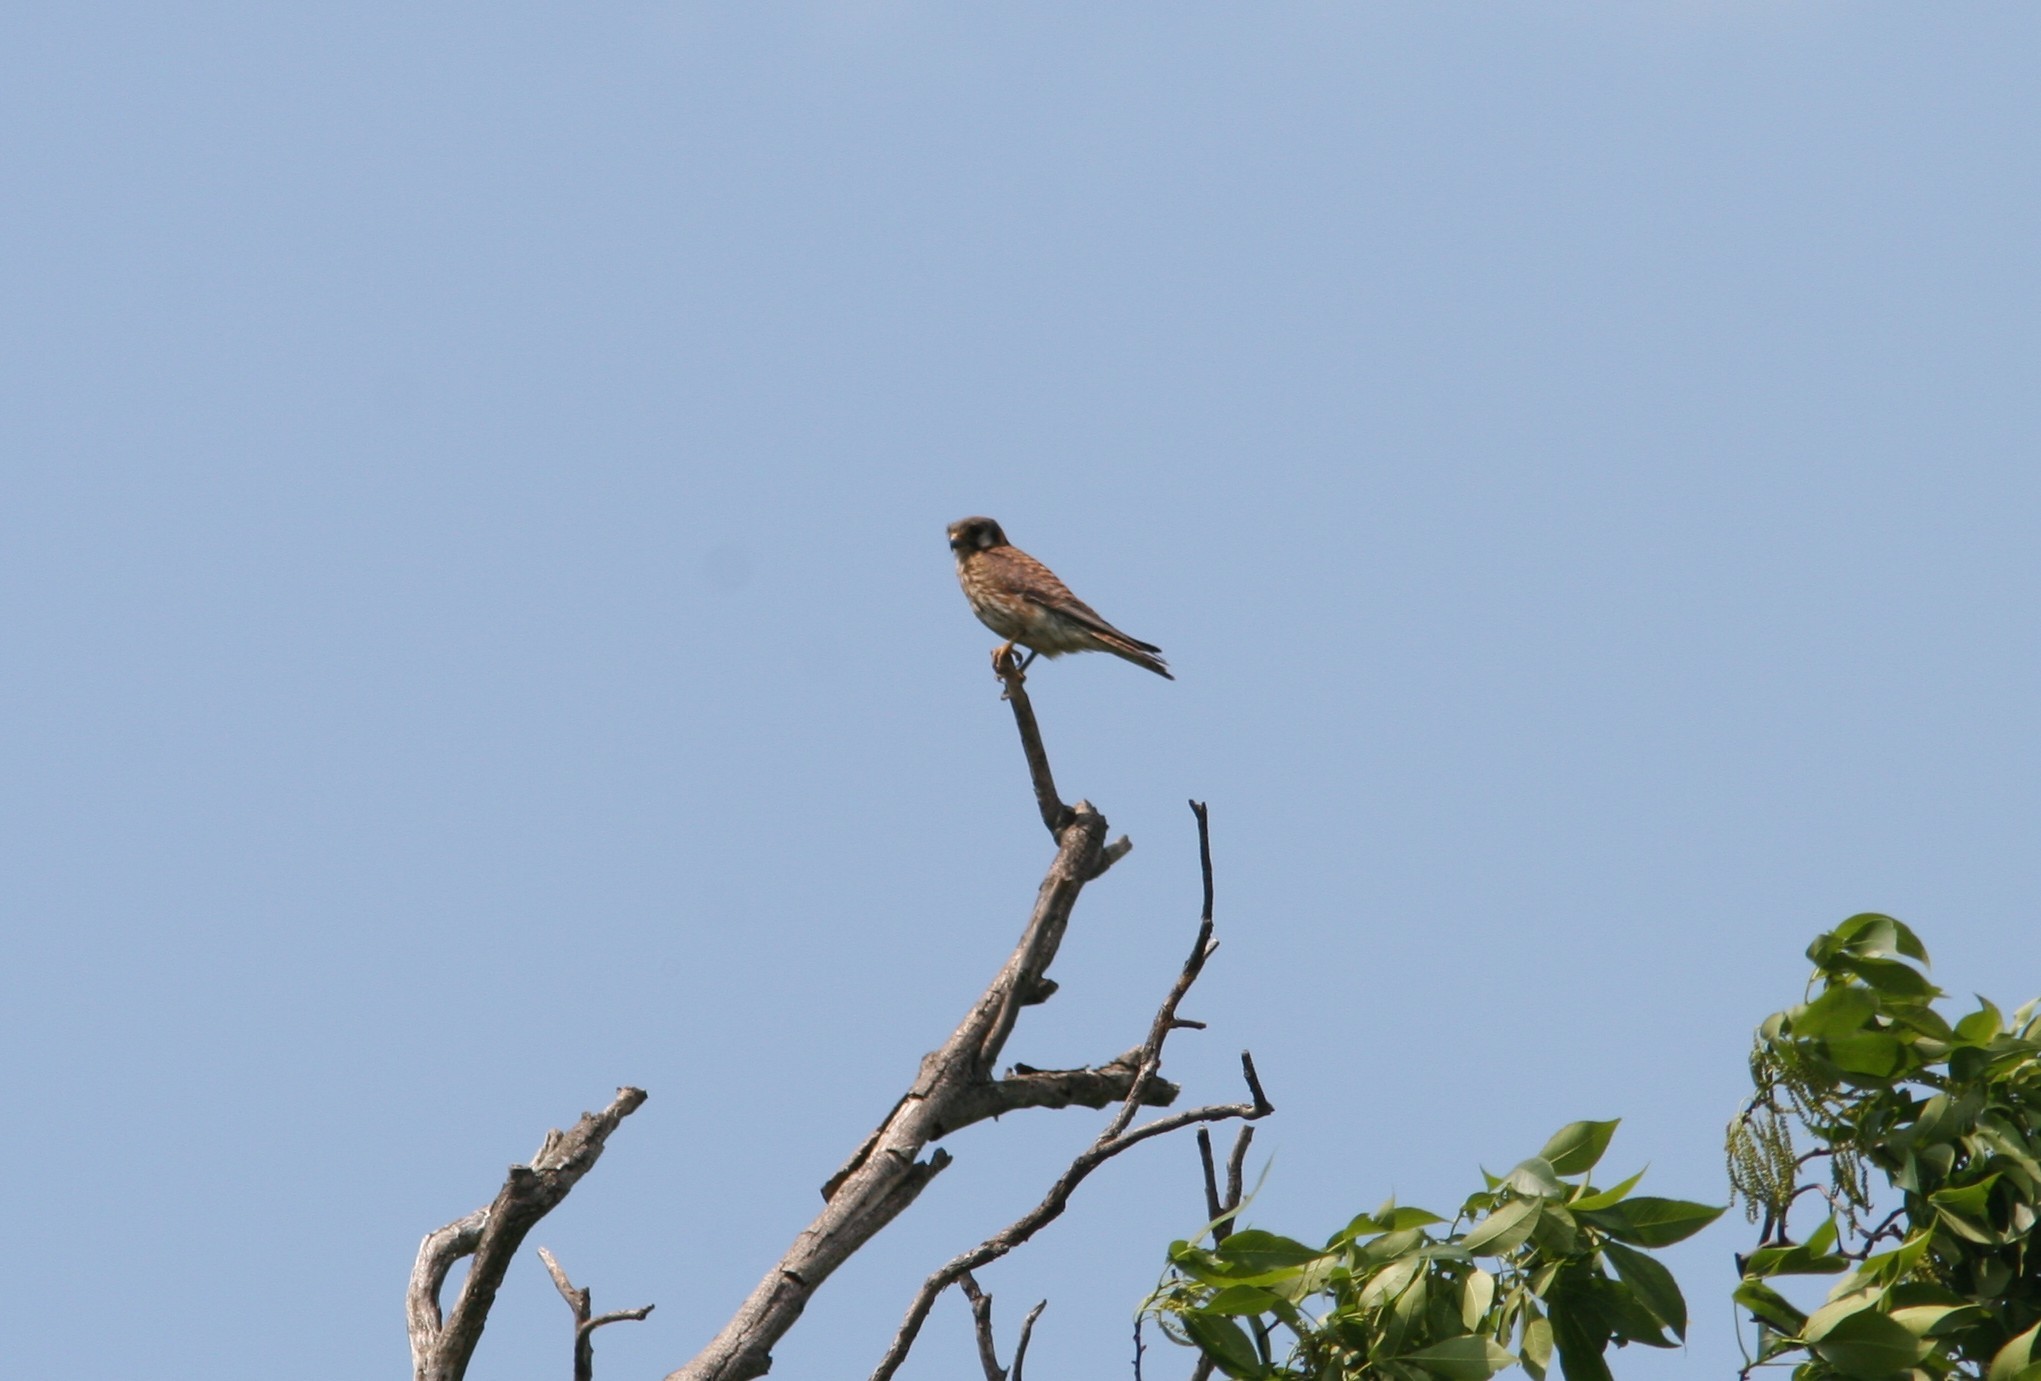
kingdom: Animalia
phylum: Chordata
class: Aves
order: Falconiformes
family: Falconidae
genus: Falco
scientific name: Falco sparverius
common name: American kestrel
